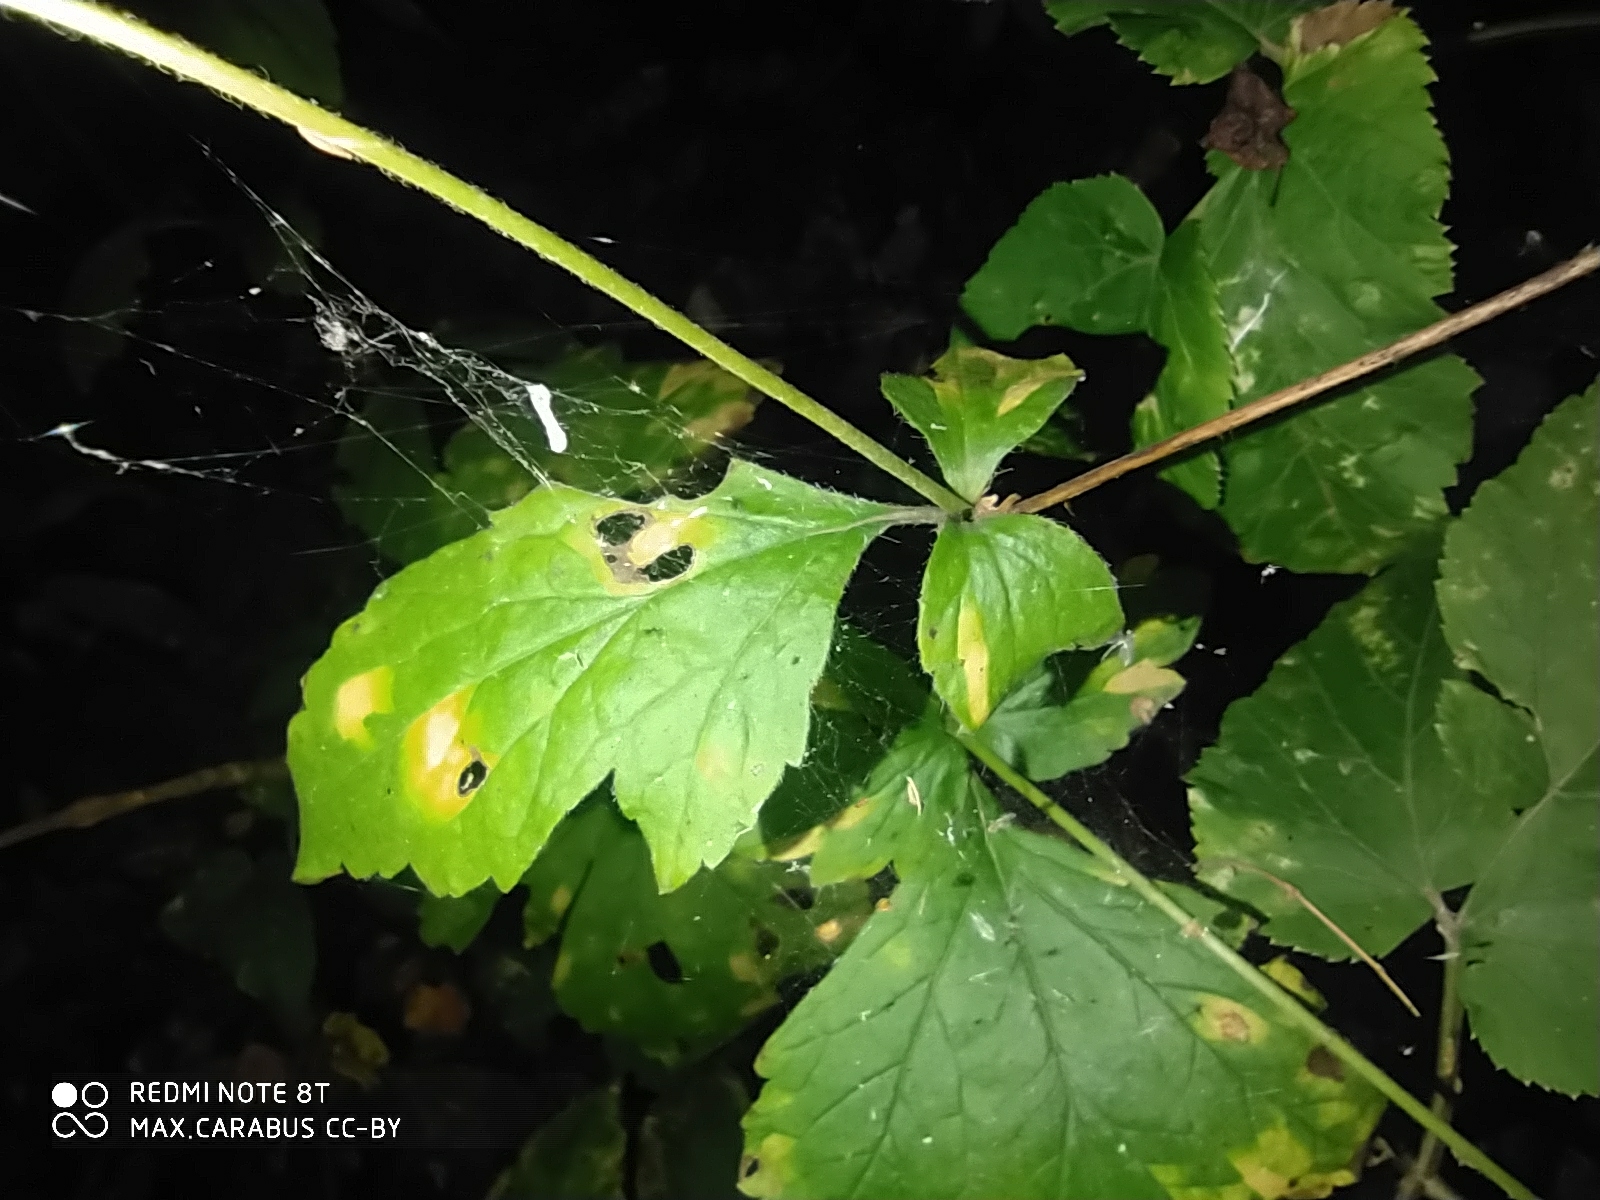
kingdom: Plantae
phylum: Tracheophyta
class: Magnoliopsida
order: Rosales
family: Rosaceae
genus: Geum
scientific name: Geum urbanum
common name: Wood avens
